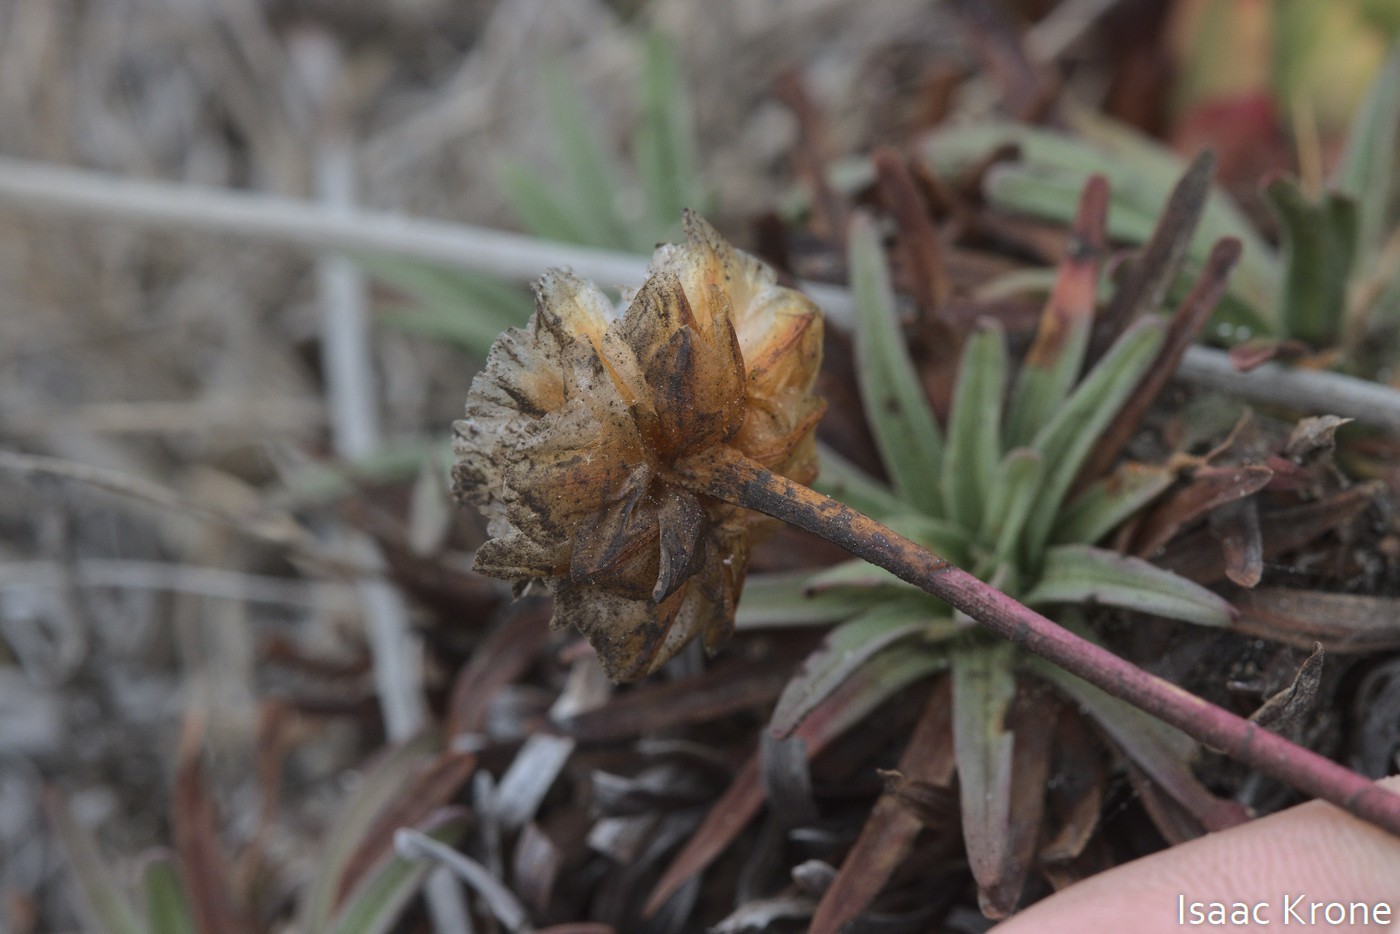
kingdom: Plantae
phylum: Tracheophyta
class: Magnoliopsida
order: Caryophyllales
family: Plumbaginaceae
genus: Armeria
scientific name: Armeria maritima
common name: Thrift
